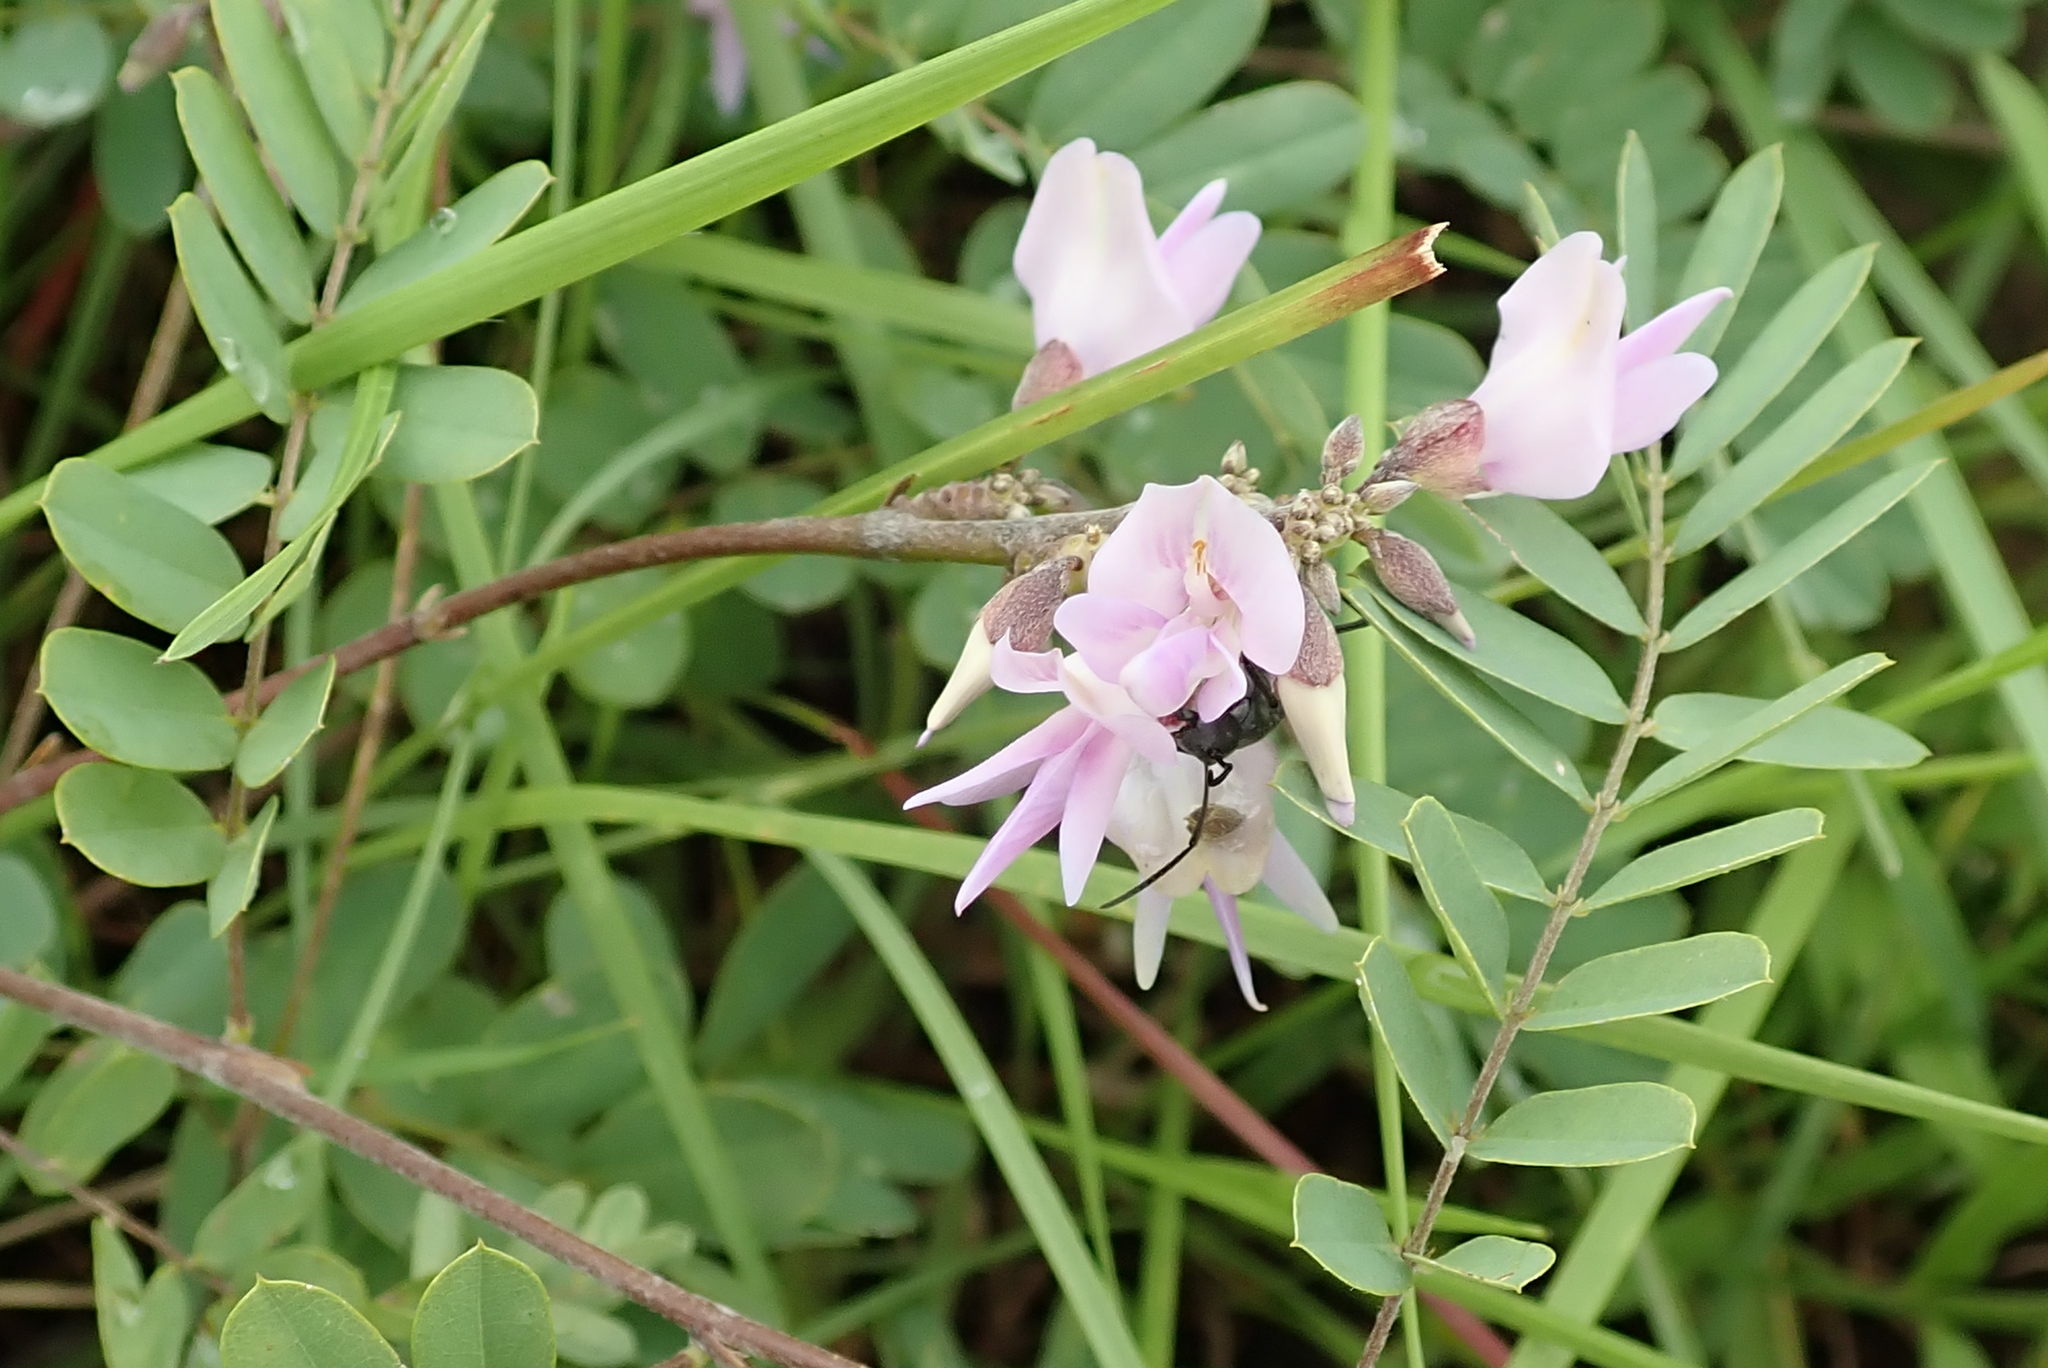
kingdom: Plantae
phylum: Tracheophyta
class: Magnoliopsida
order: Fabales
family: Fabaceae
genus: Abrus
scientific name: Abrus laevigatus
